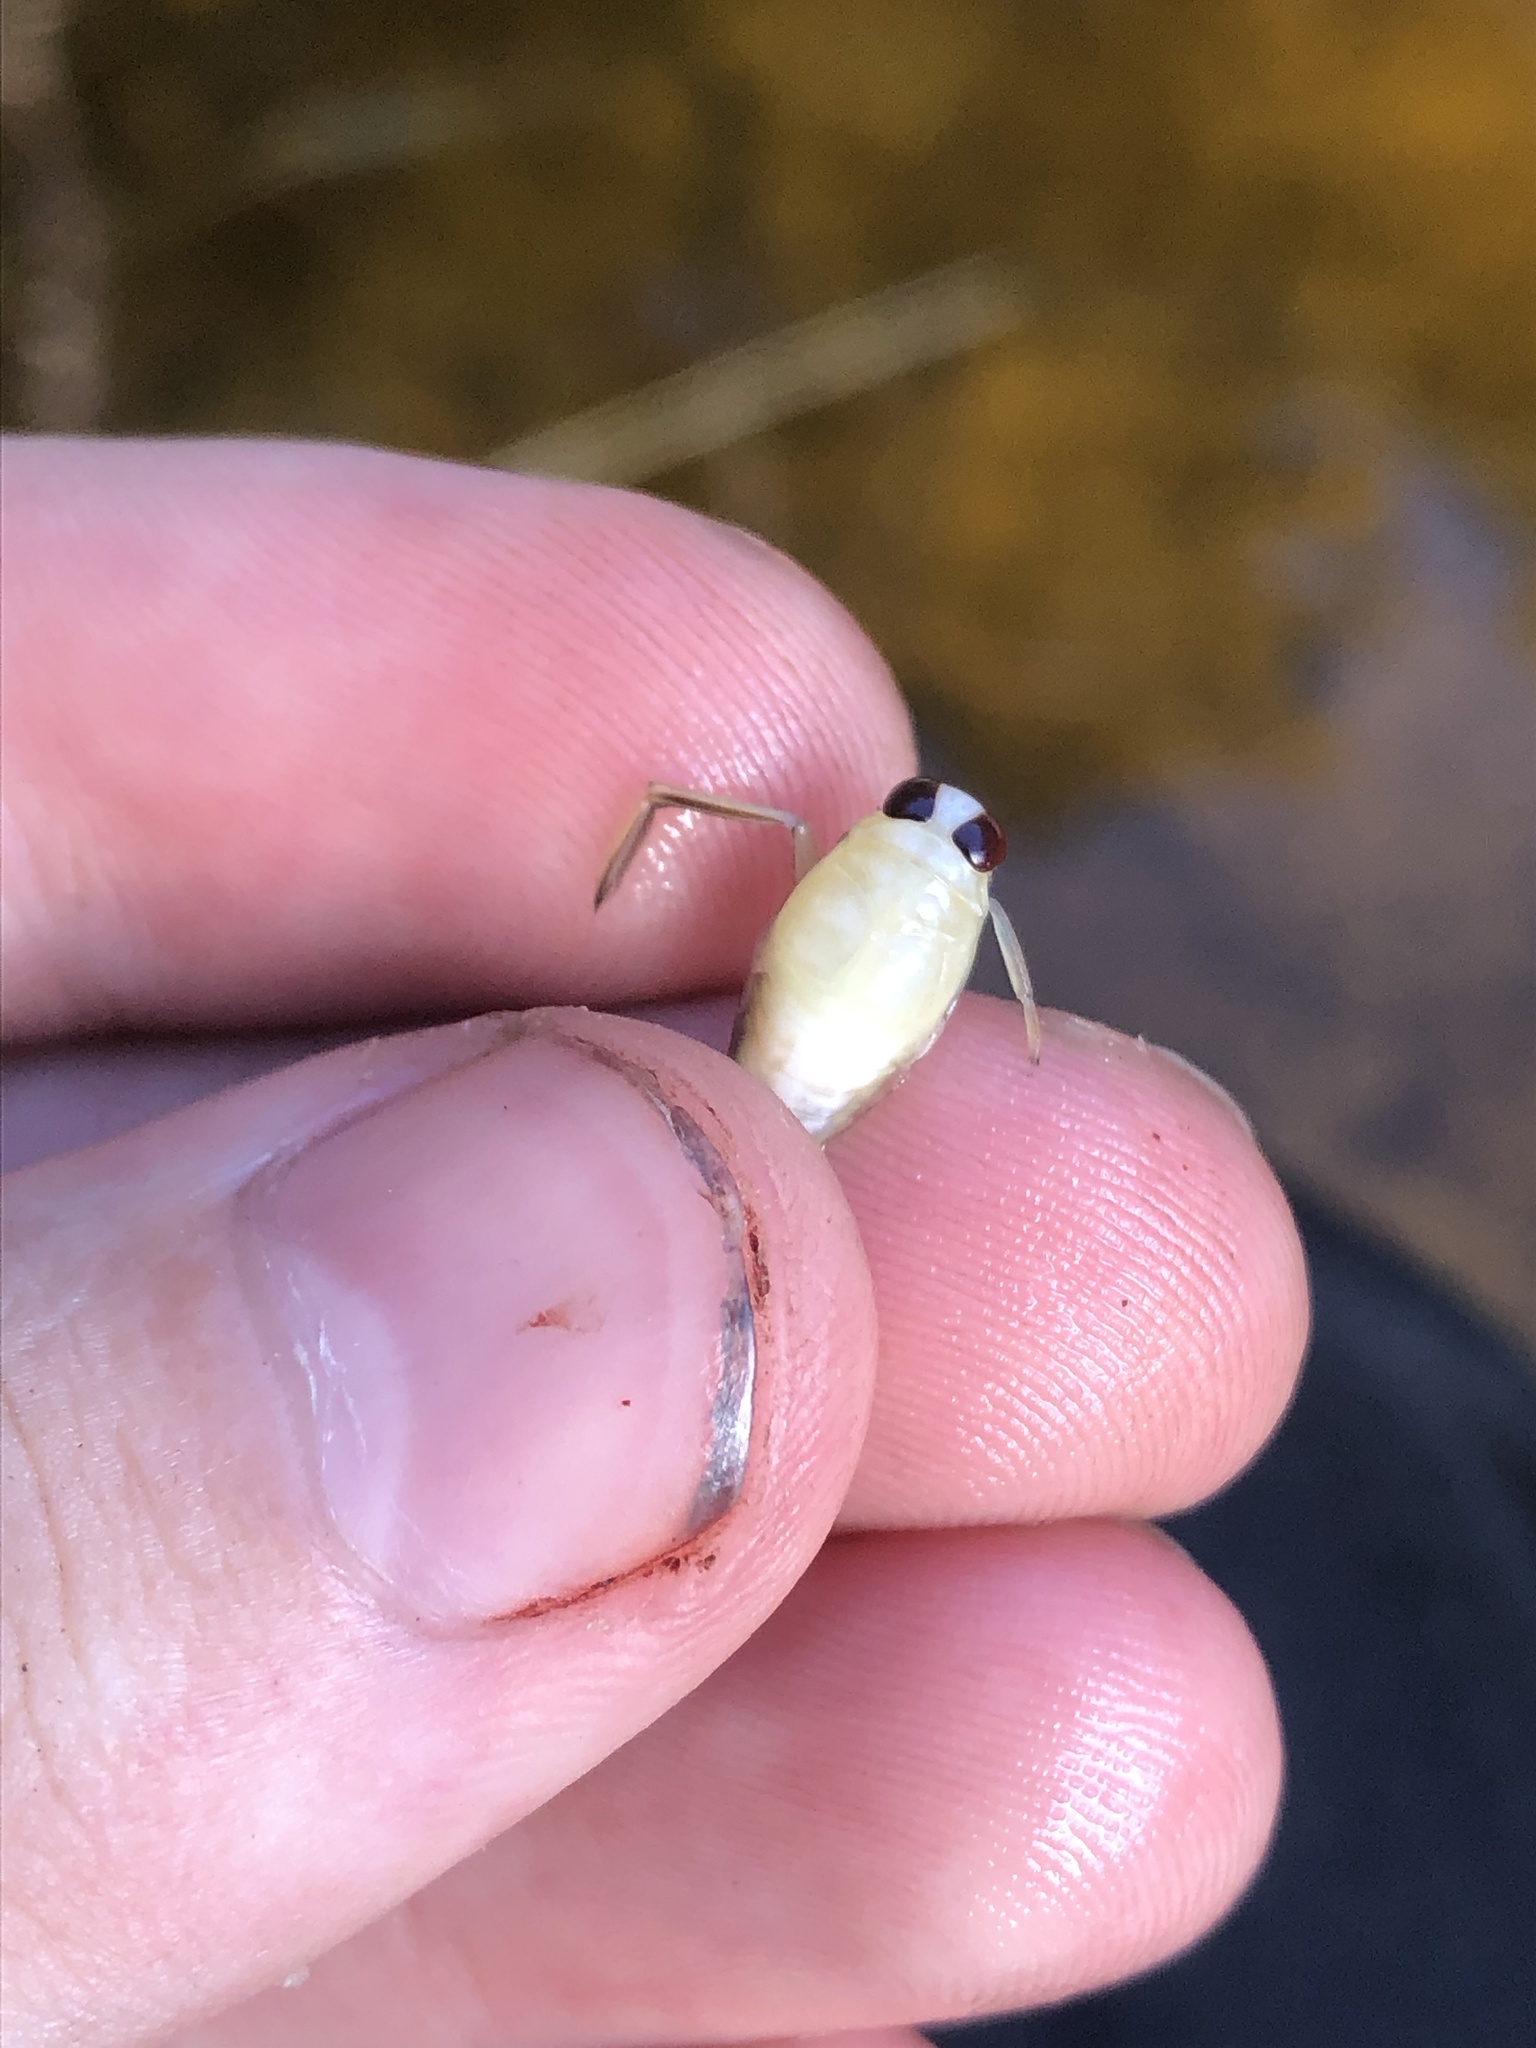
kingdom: Animalia
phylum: Arthropoda
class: Insecta
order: Hemiptera
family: Notonectidae
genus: Notonecta
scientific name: Notonecta
